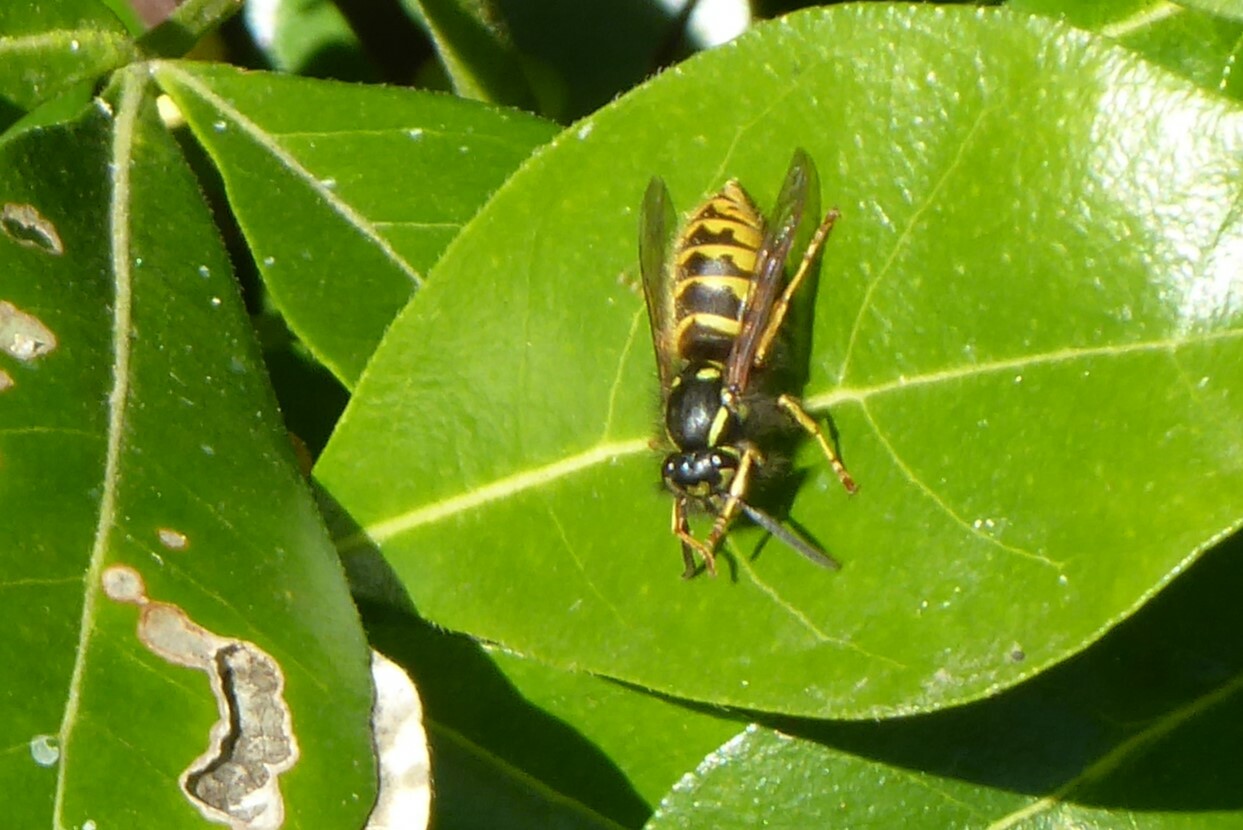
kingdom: Animalia
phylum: Arthropoda
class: Insecta
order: Hymenoptera
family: Vespidae
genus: Vespula
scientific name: Vespula vulgaris
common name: Common wasp
